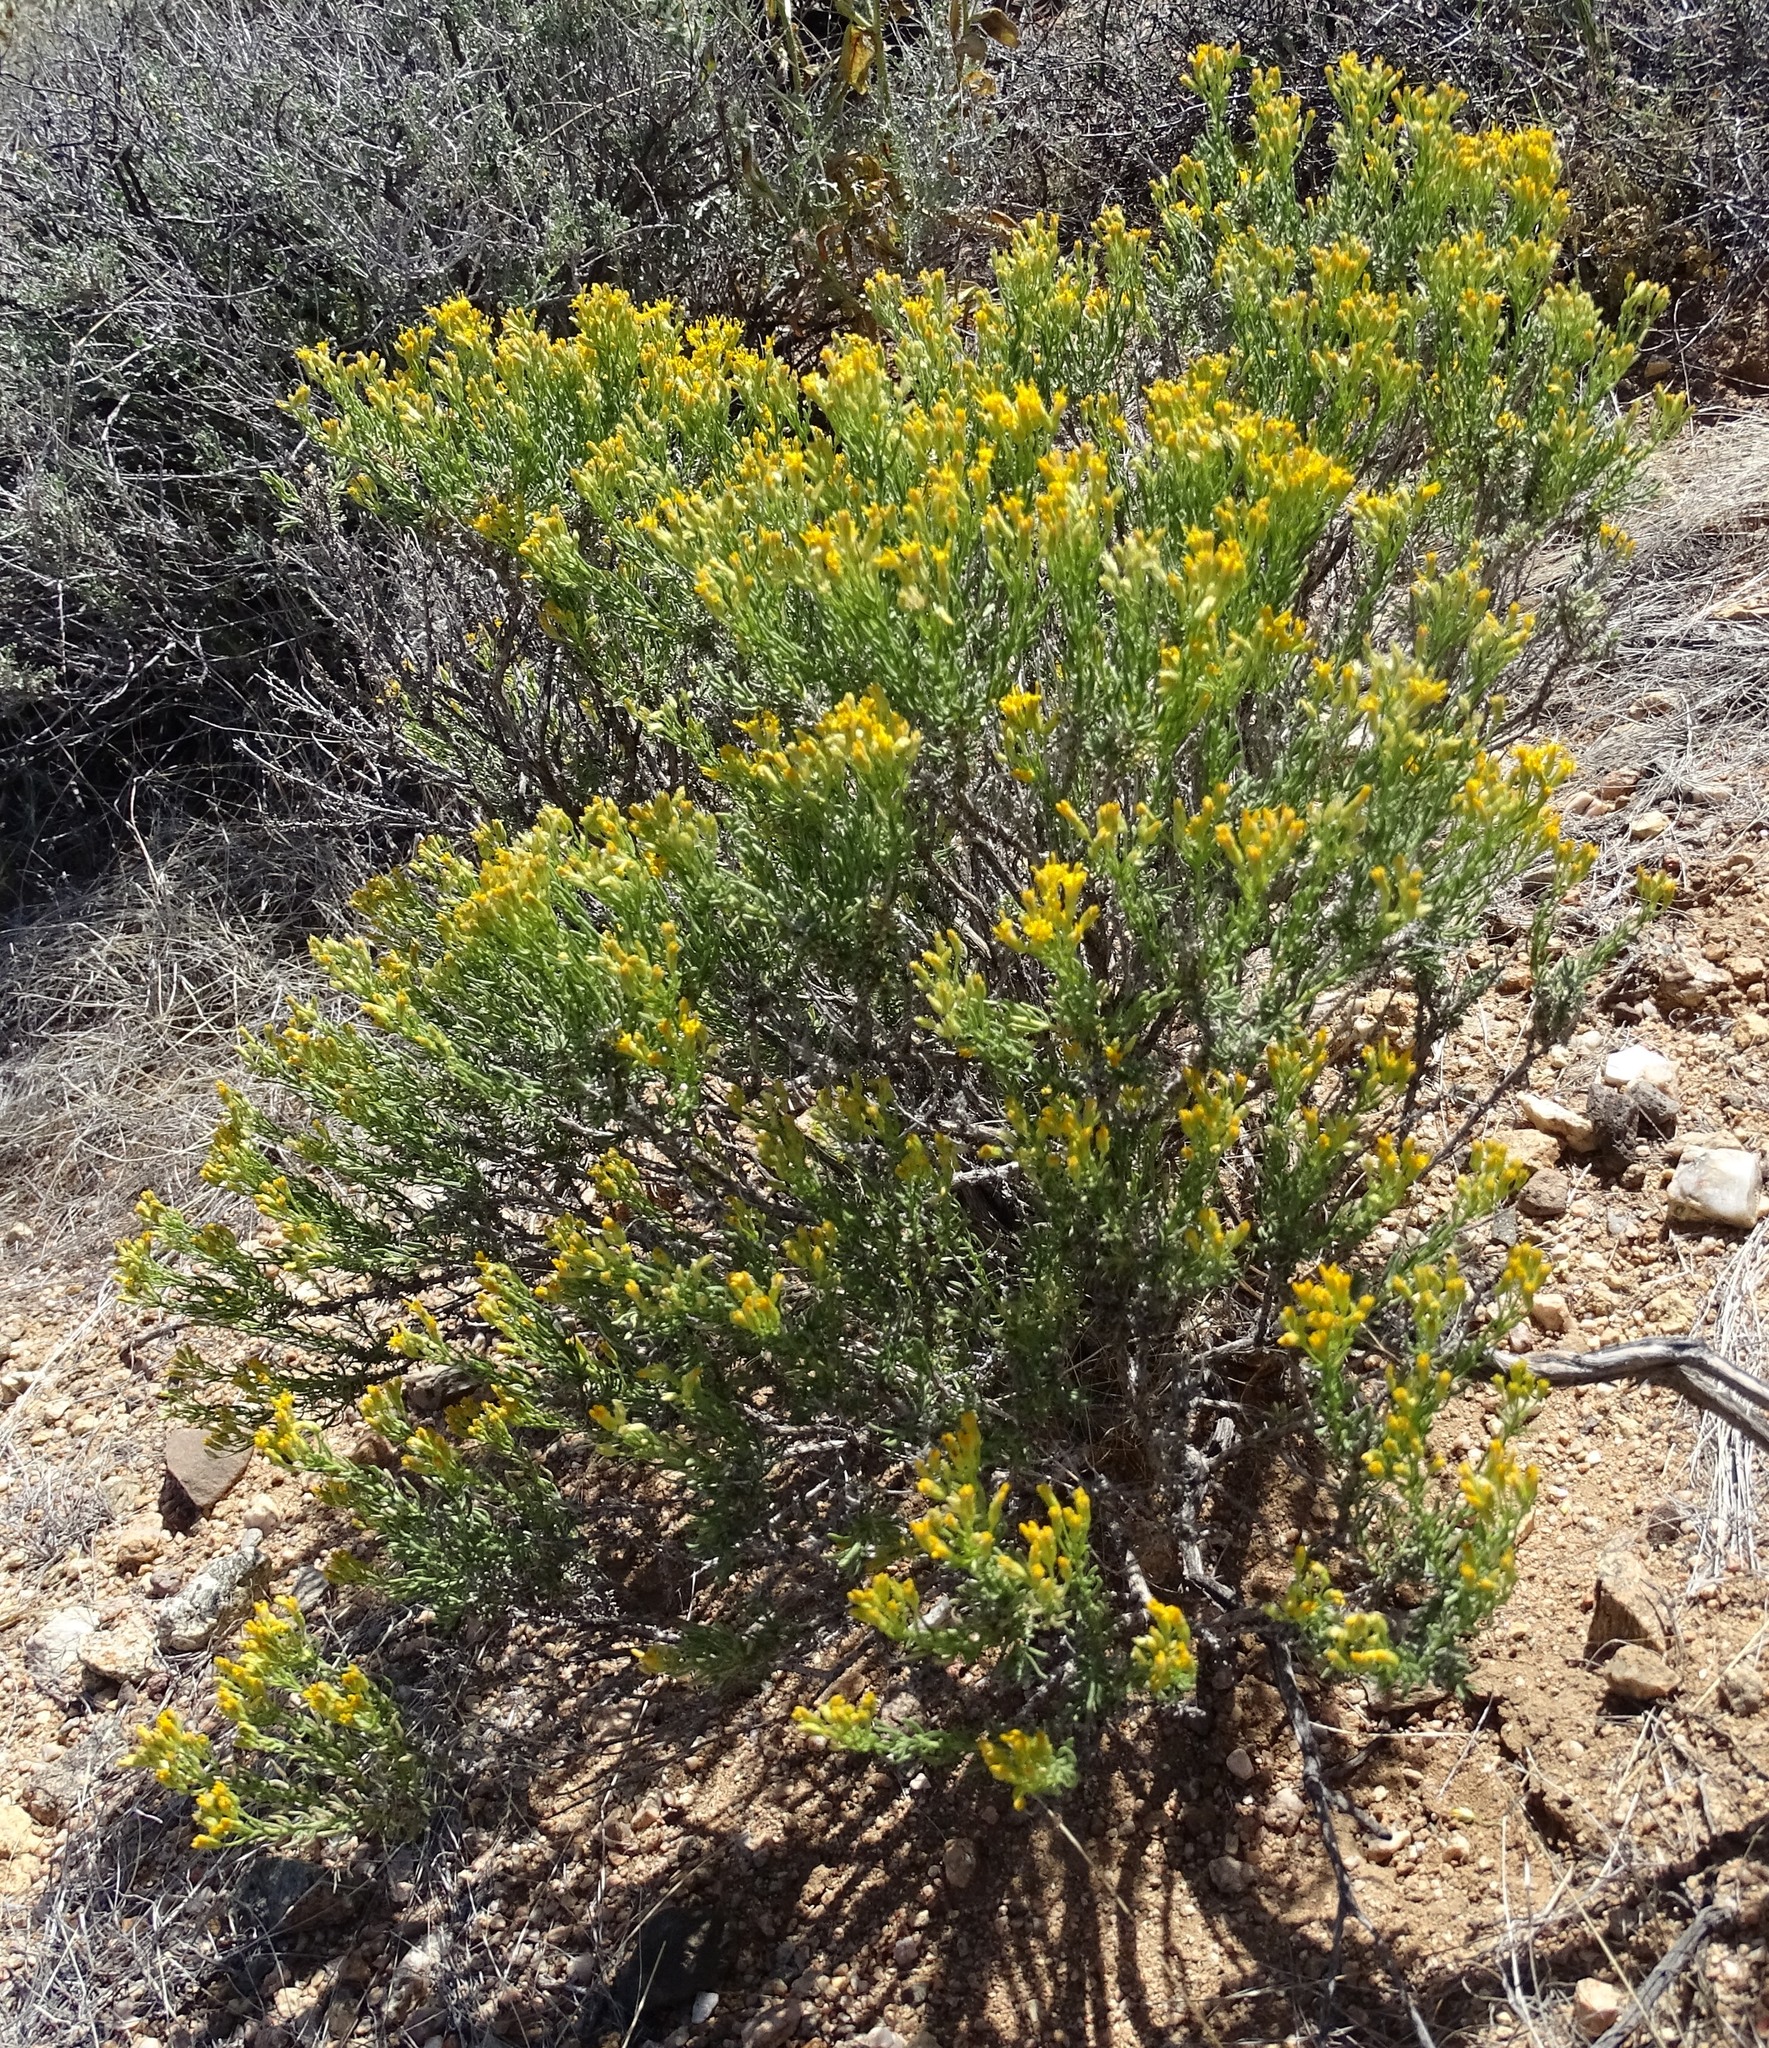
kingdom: Plantae
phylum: Tracheophyta
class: Magnoliopsida
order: Asterales
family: Asteraceae
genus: Ericameria
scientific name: Ericameria cooperi
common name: Cooper's goldenbush
